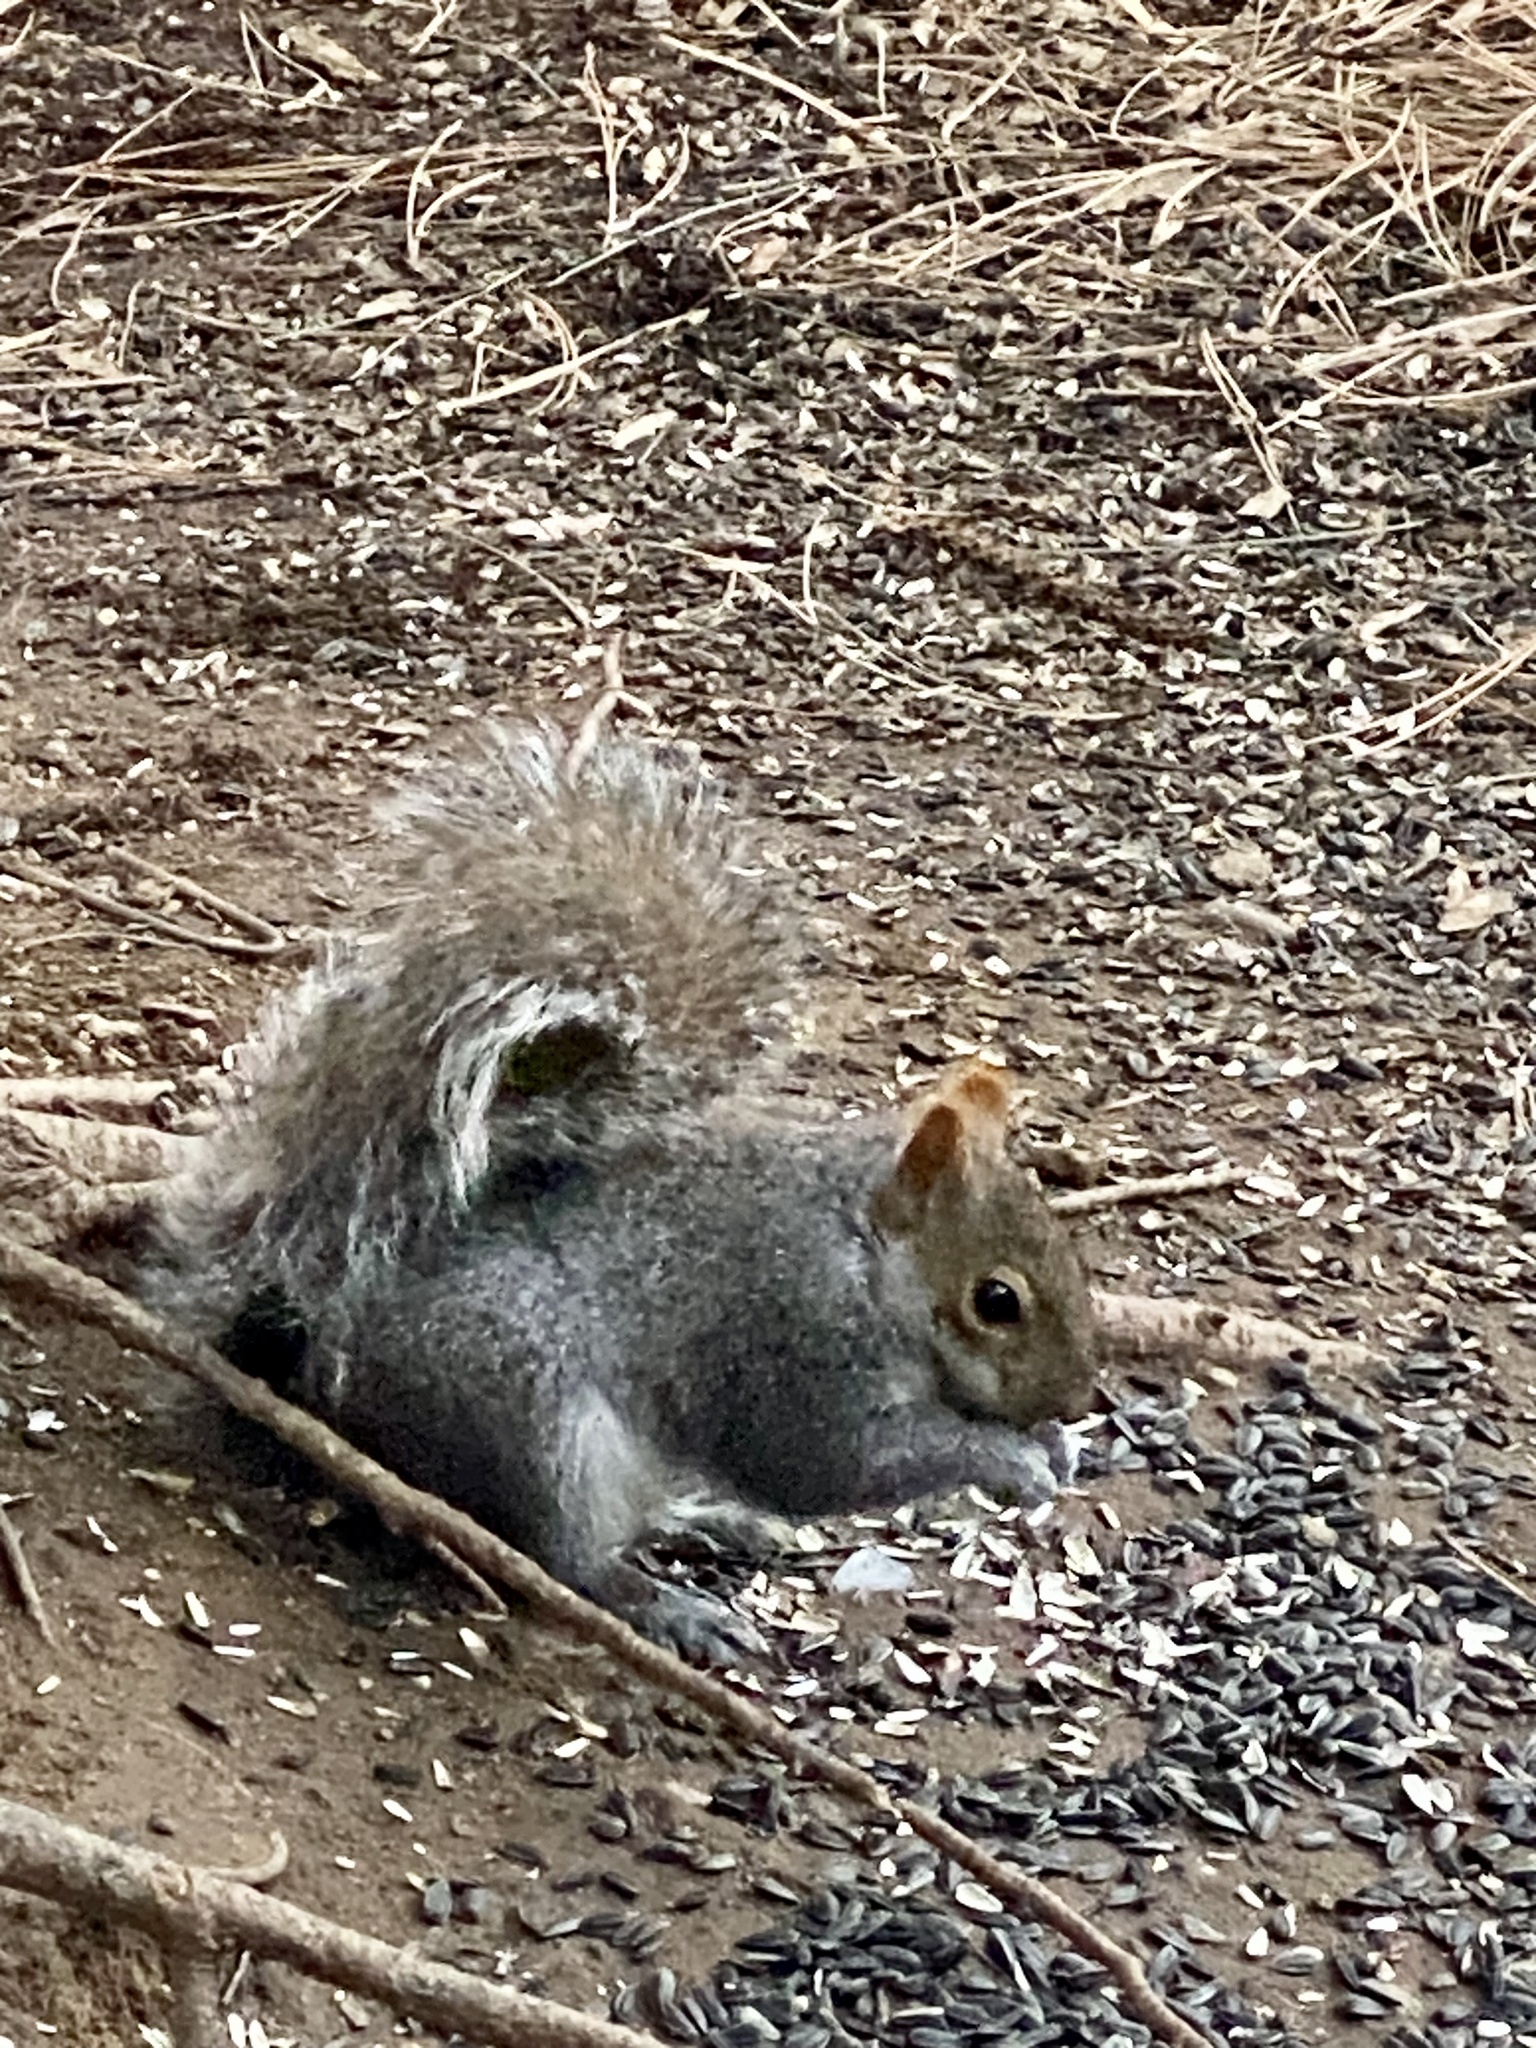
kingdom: Animalia
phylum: Chordata
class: Mammalia
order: Rodentia
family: Sciuridae
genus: Sciurus
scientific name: Sciurus carolinensis
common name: Eastern gray squirrel
